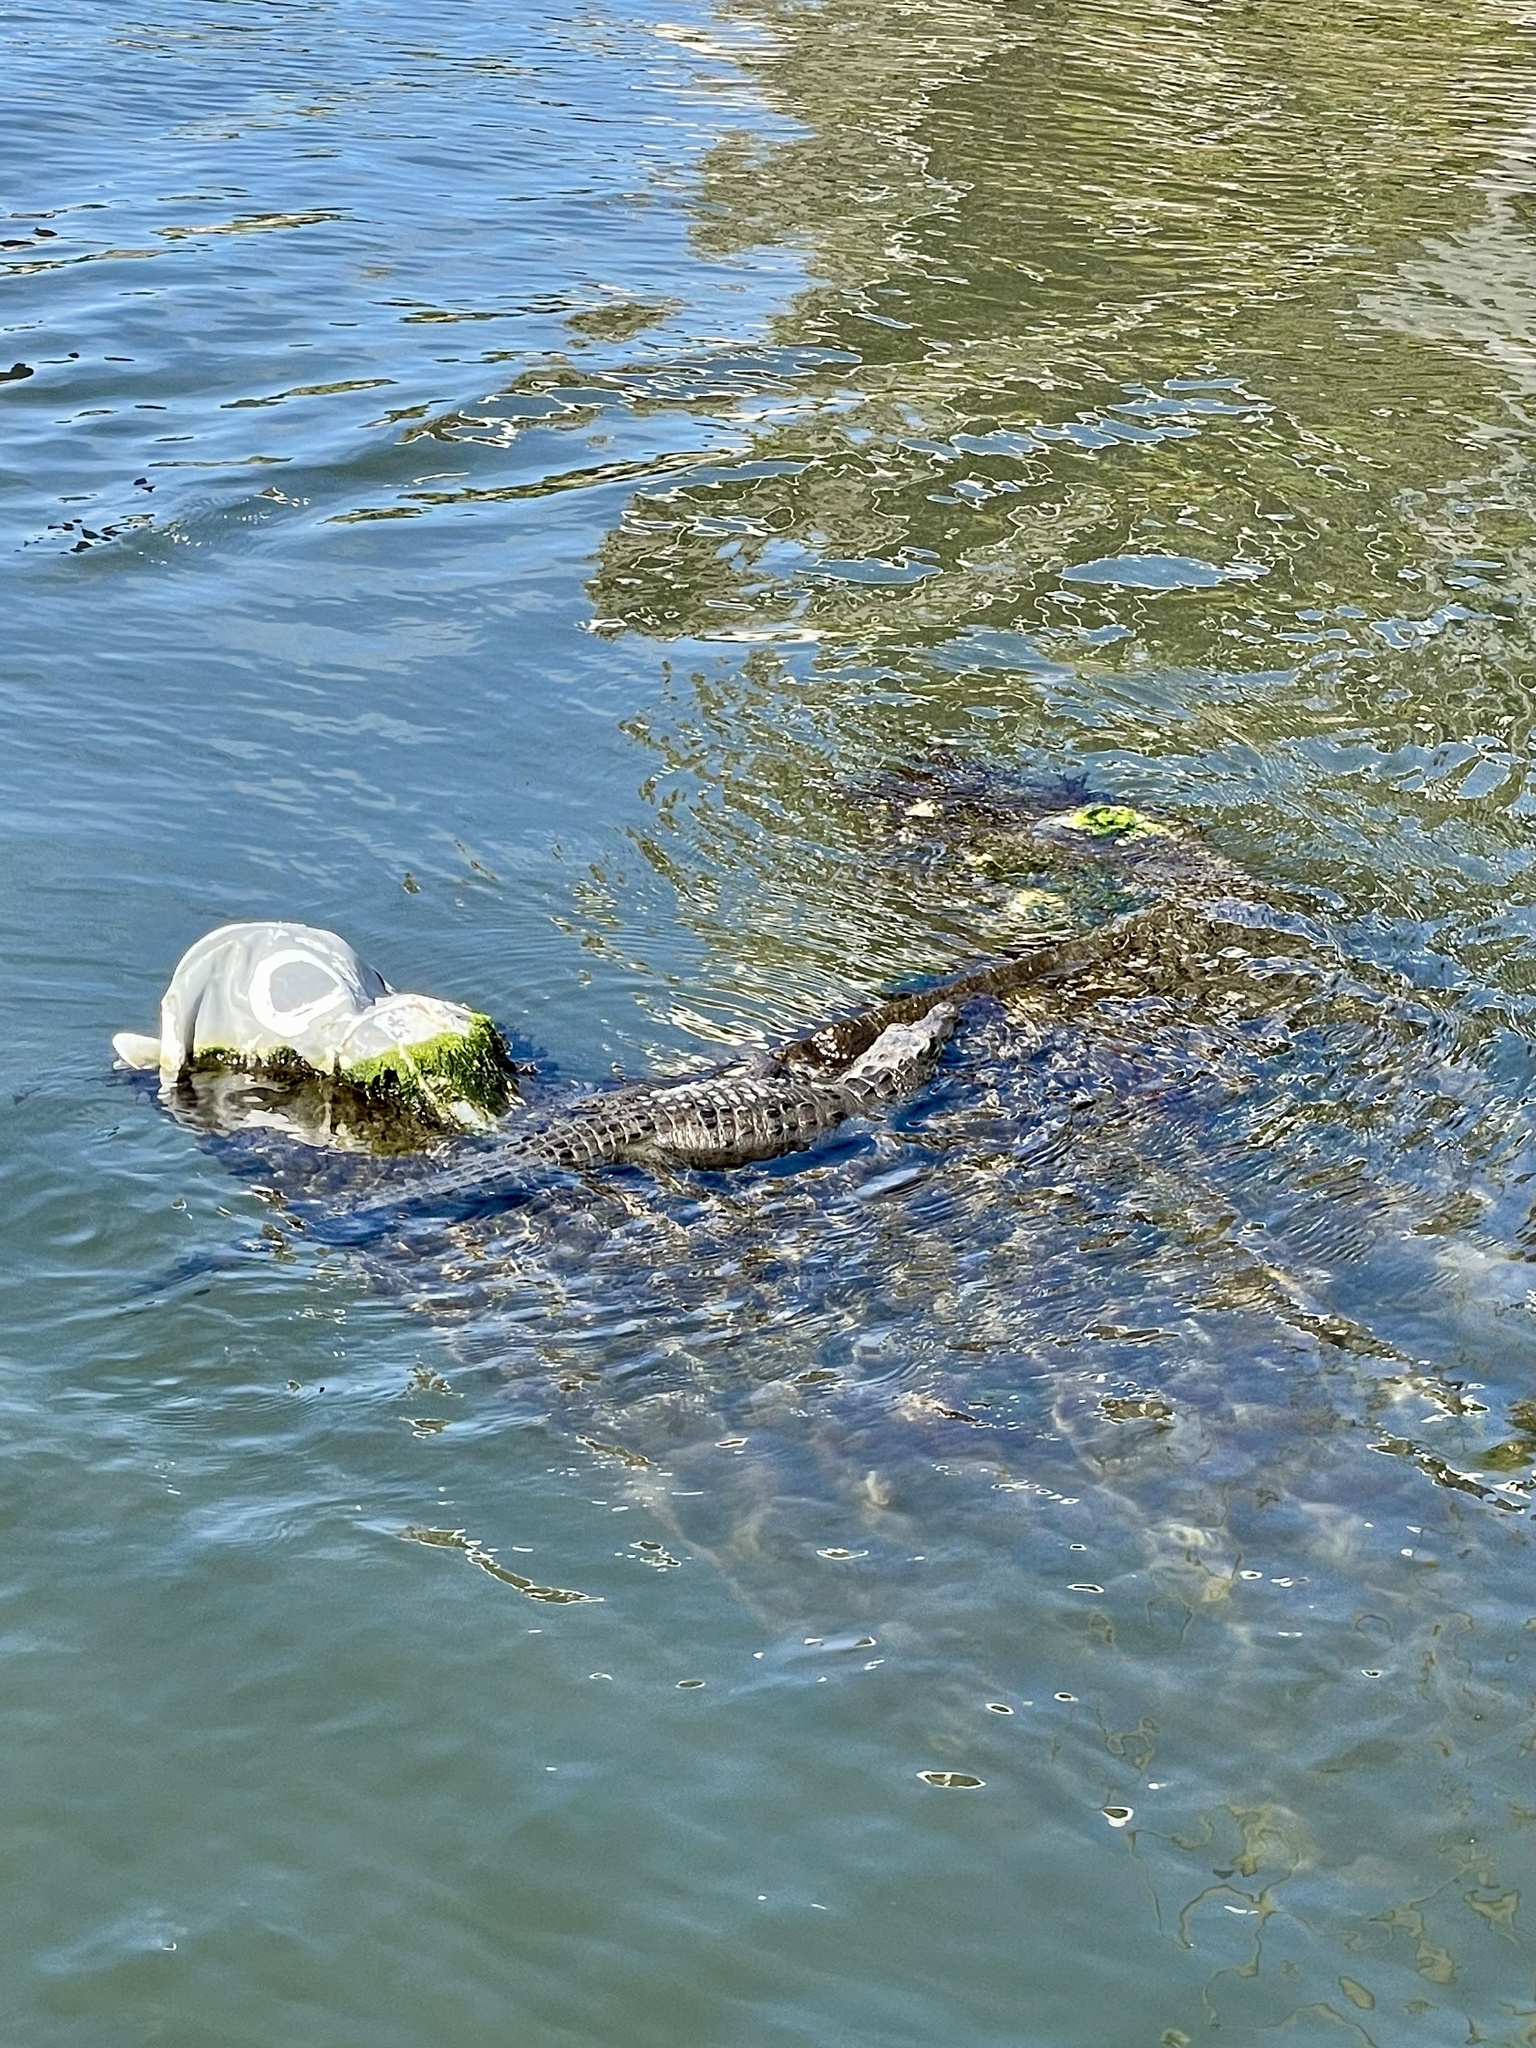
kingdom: Animalia
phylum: Chordata
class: Crocodylia
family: Crocodylidae
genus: Crocodylus
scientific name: Crocodylus acutus
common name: American crocodile
